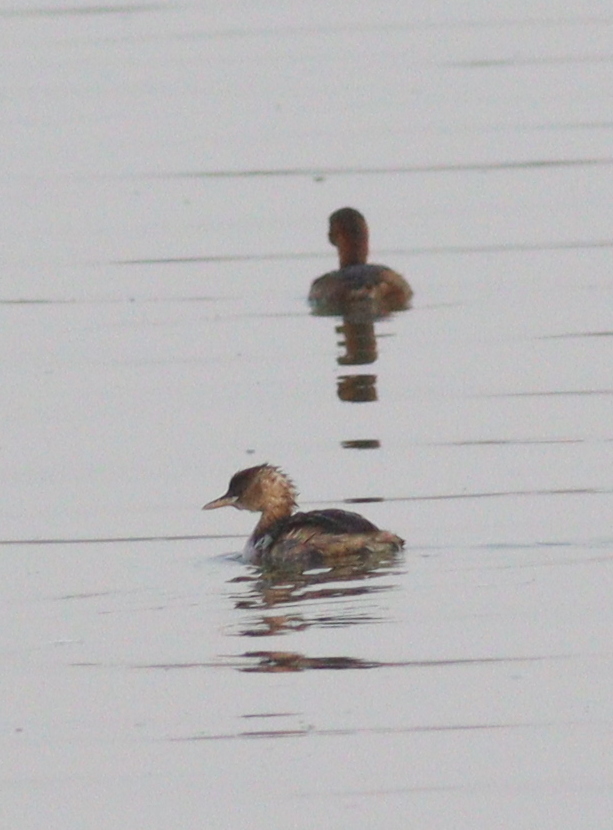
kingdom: Animalia
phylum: Chordata
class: Aves
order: Podicipediformes
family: Podicipedidae
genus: Tachybaptus
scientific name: Tachybaptus ruficollis
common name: Little grebe
